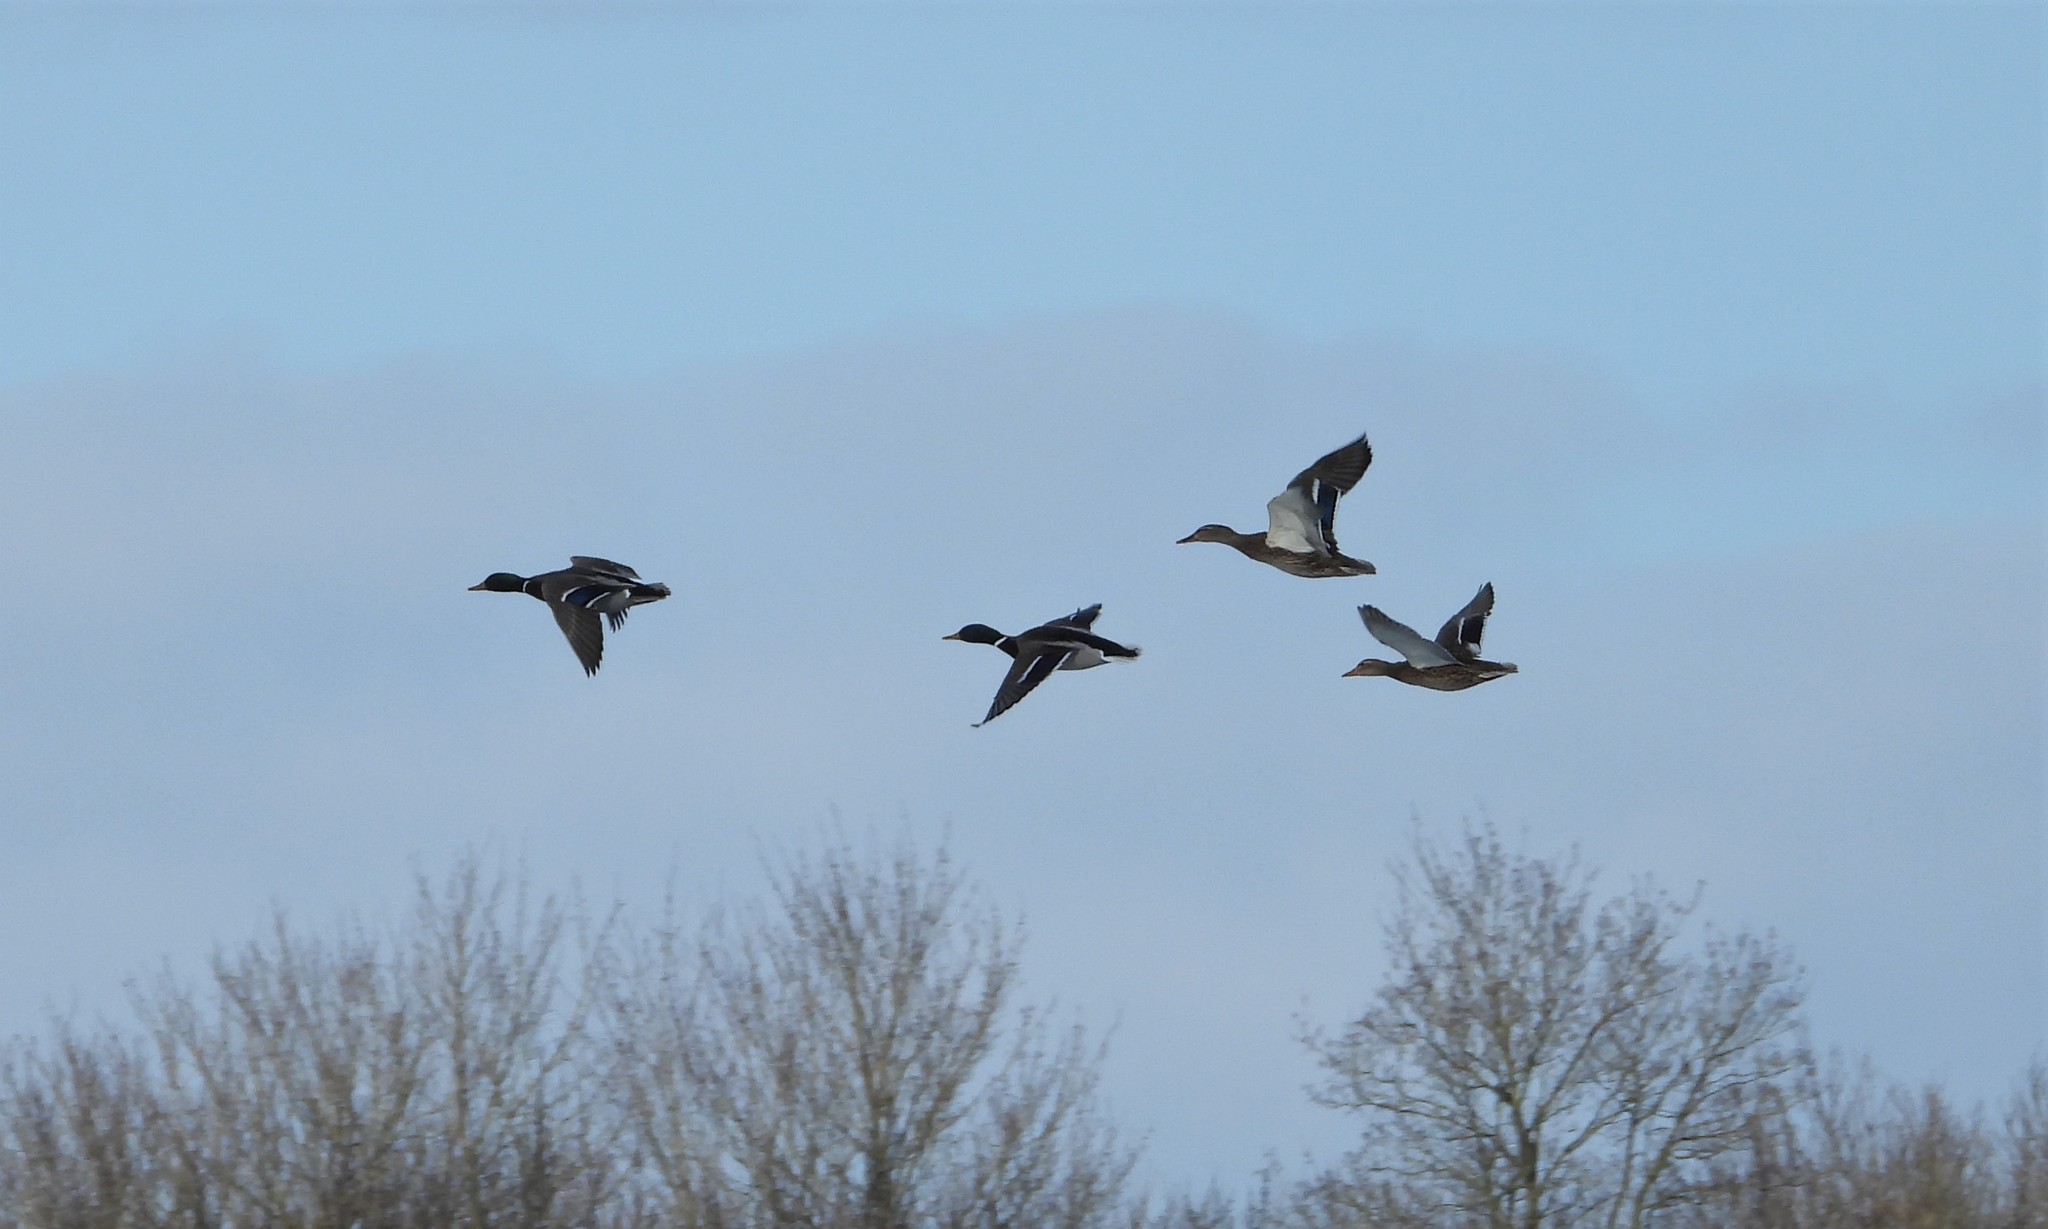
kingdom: Animalia
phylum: Chordata
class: Aves
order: Anseriformes
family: Anatidae
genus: Anas
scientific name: Anas platyrhynchos
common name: Mallard
